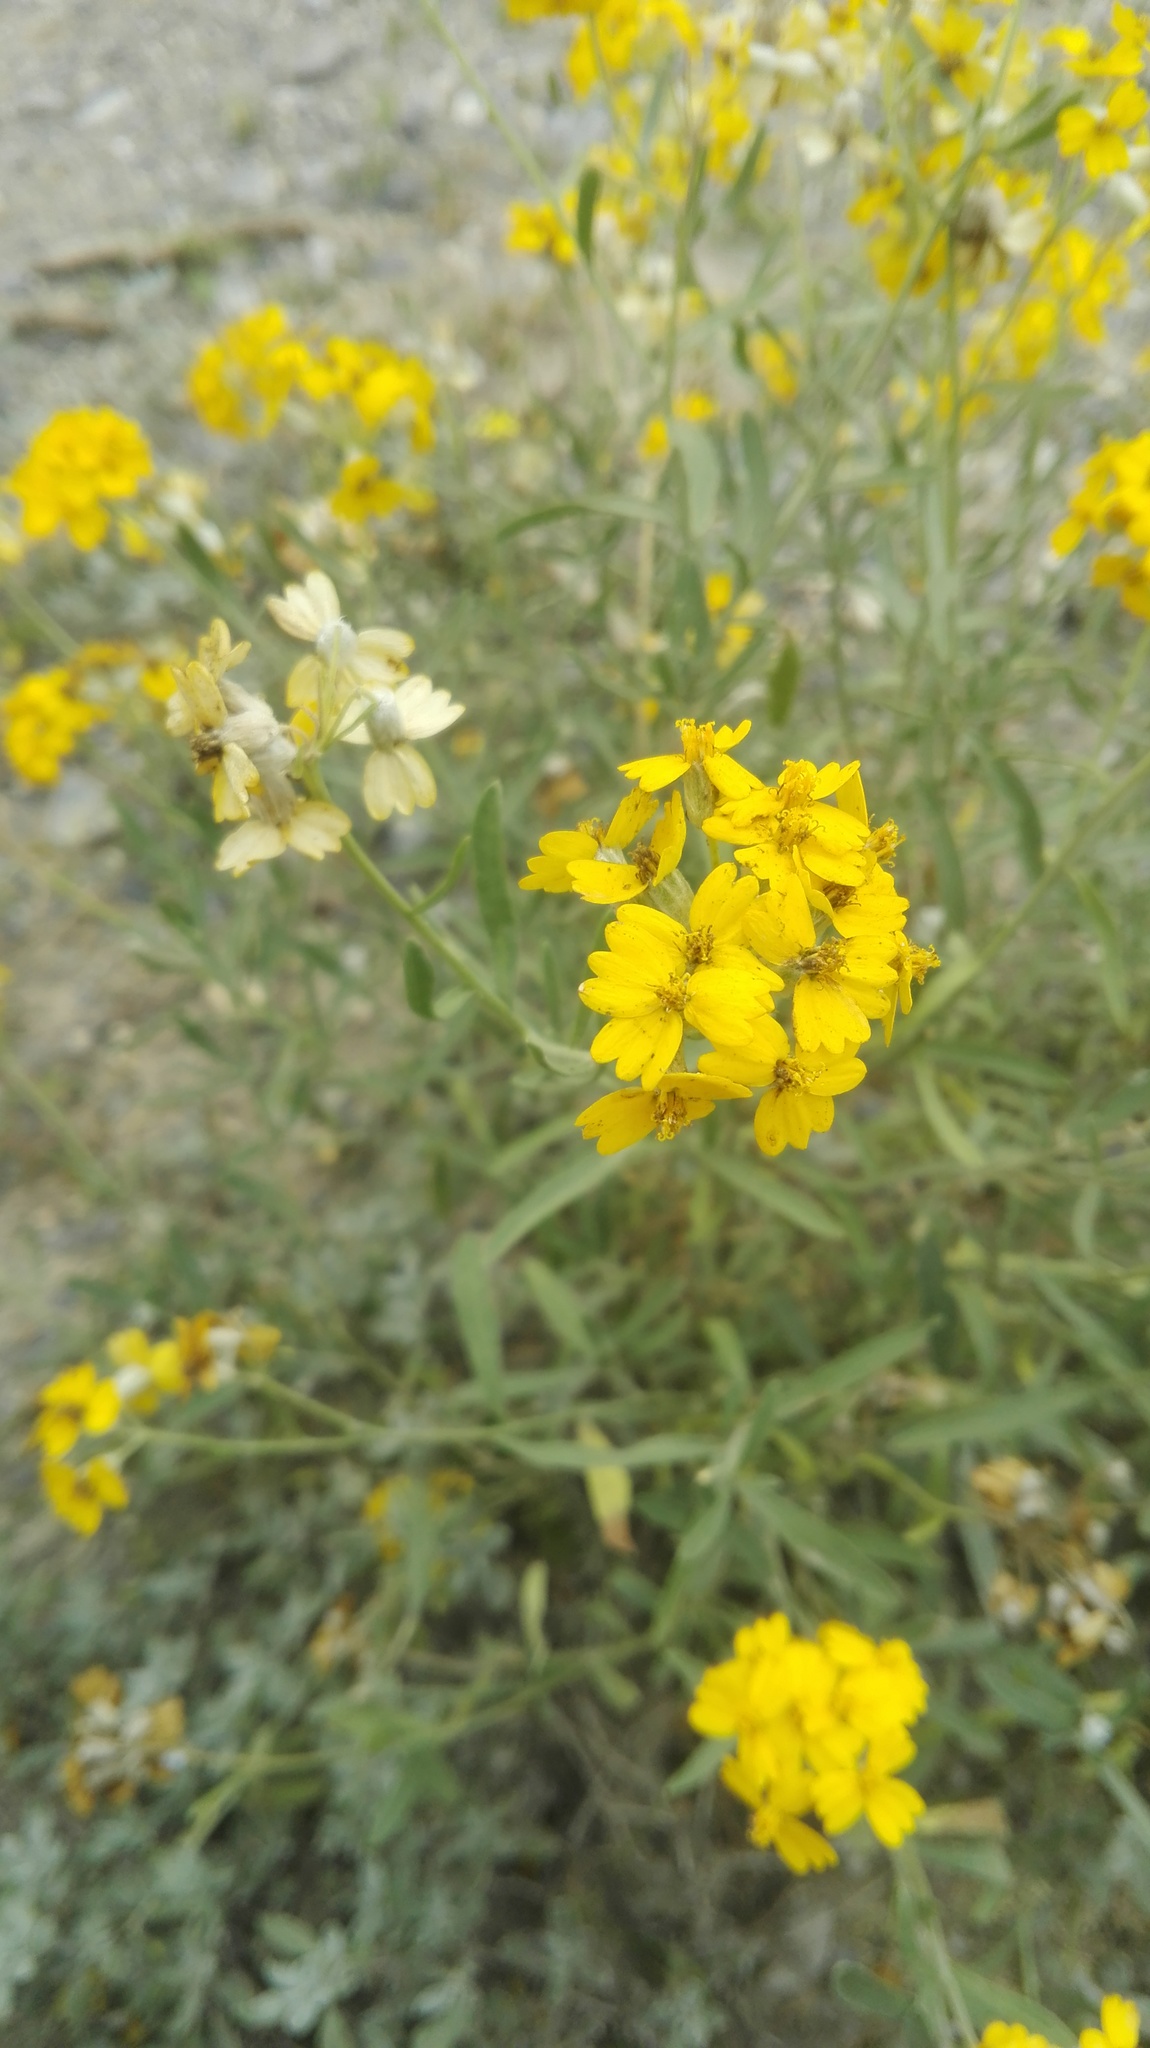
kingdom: Plantae
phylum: Tracheophyta
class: Magnoliopsida
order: Asterales
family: Asteraceae
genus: Psilostrophe
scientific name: Psilostrophe gnaphalioides
